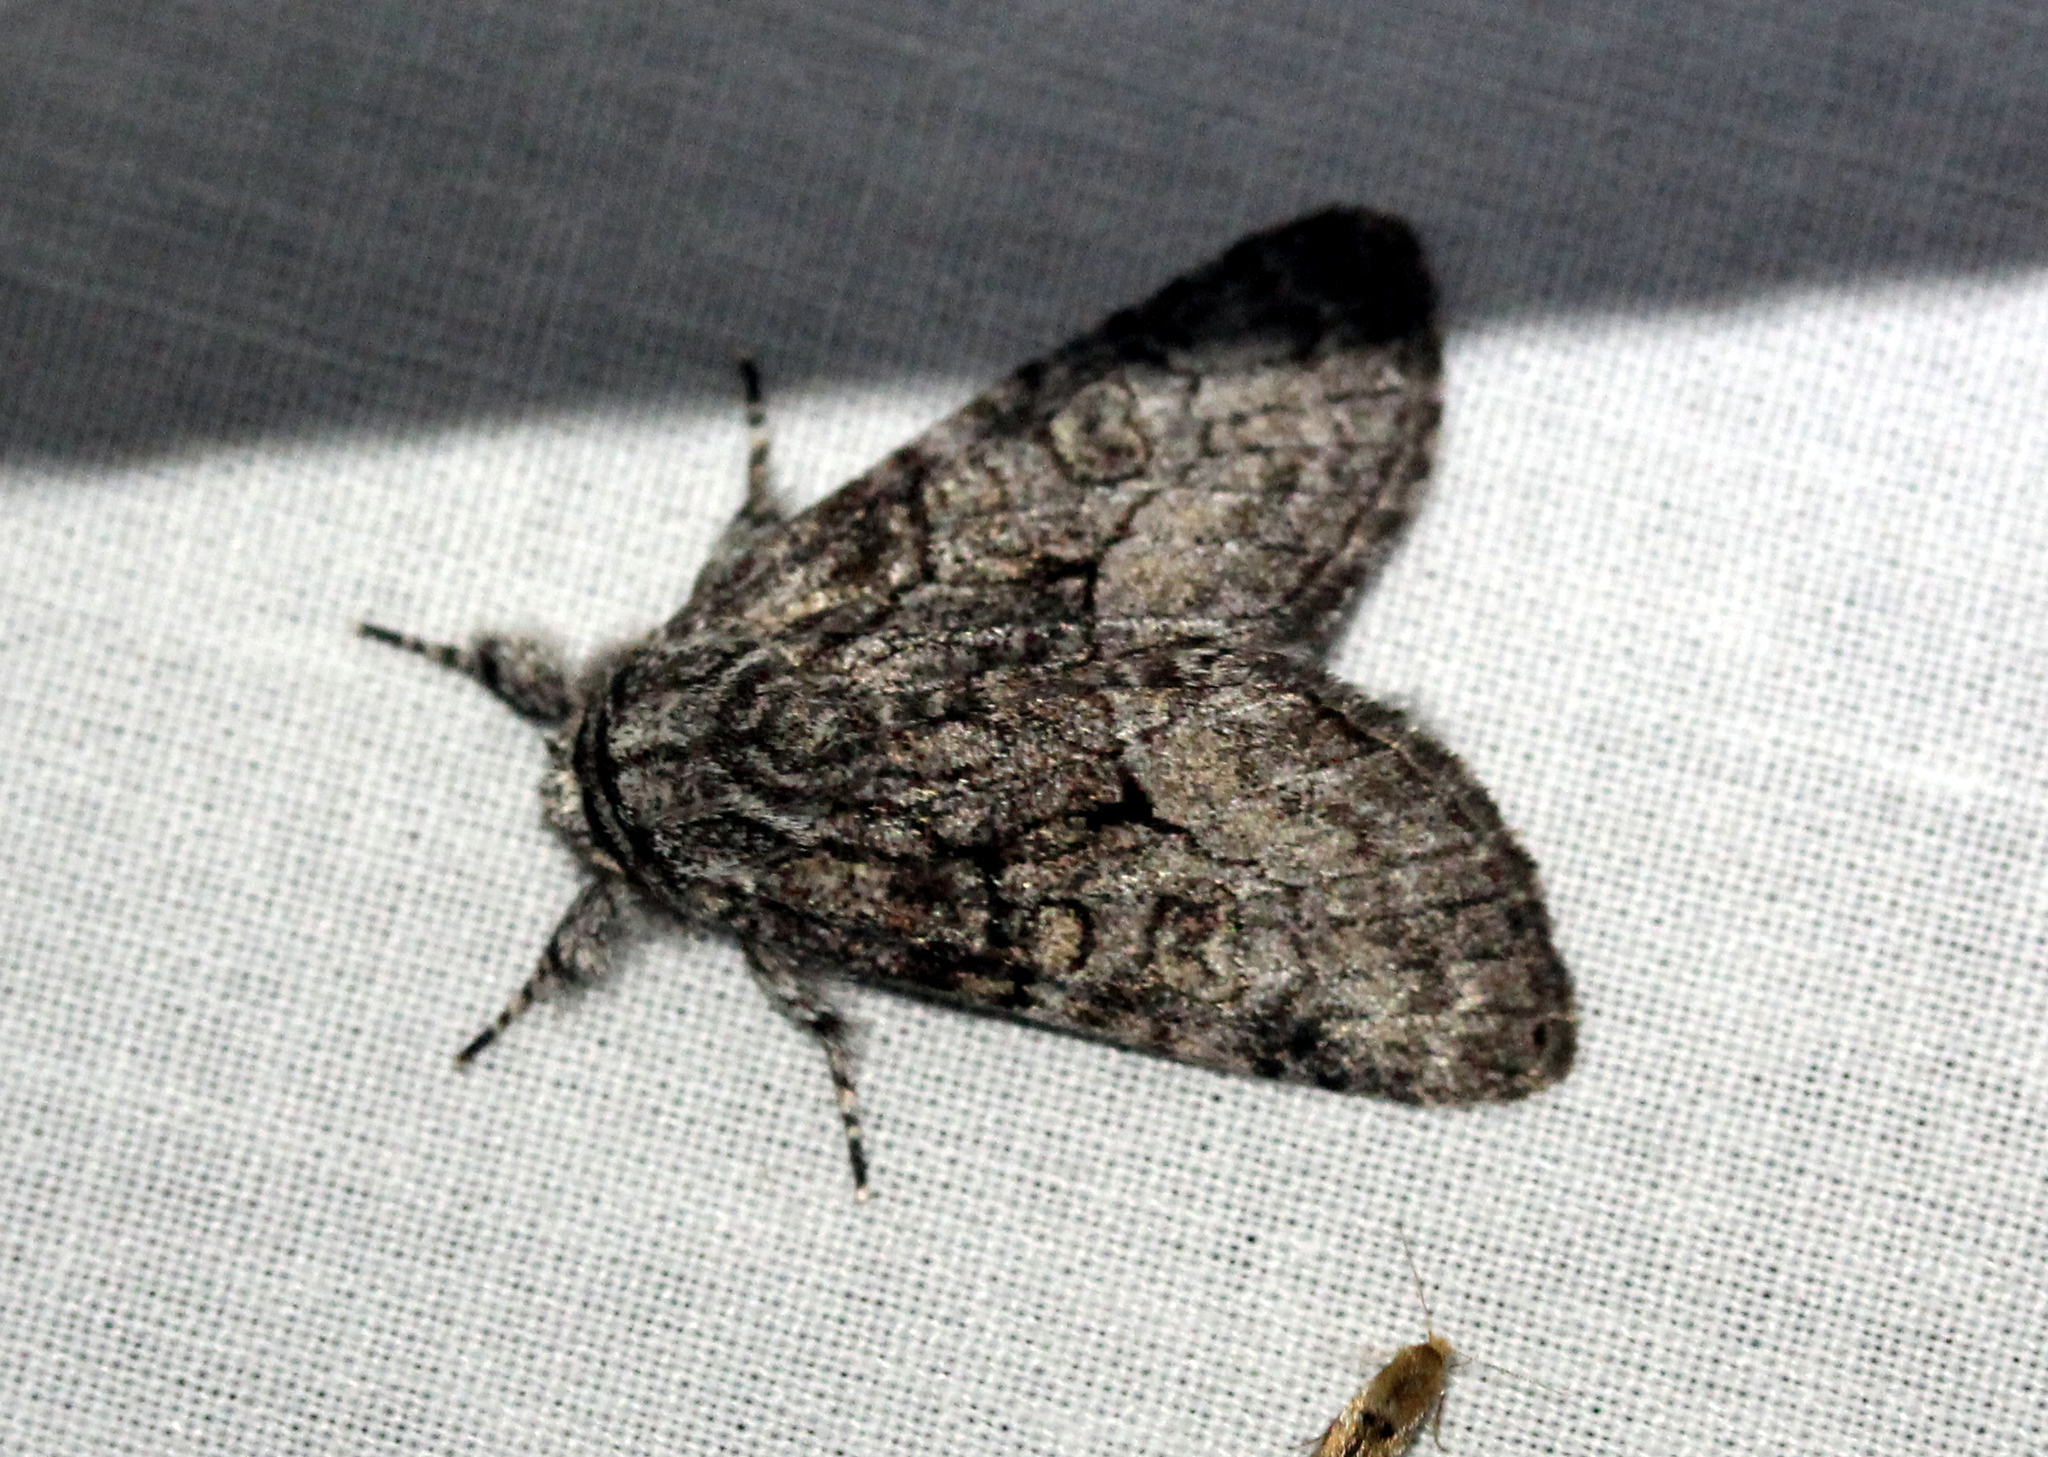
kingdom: Animalia
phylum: Arthropoda
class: Insecta
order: Lepidoptera
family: Noctuidae
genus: Raphia
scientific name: Raphia frater
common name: Brother
